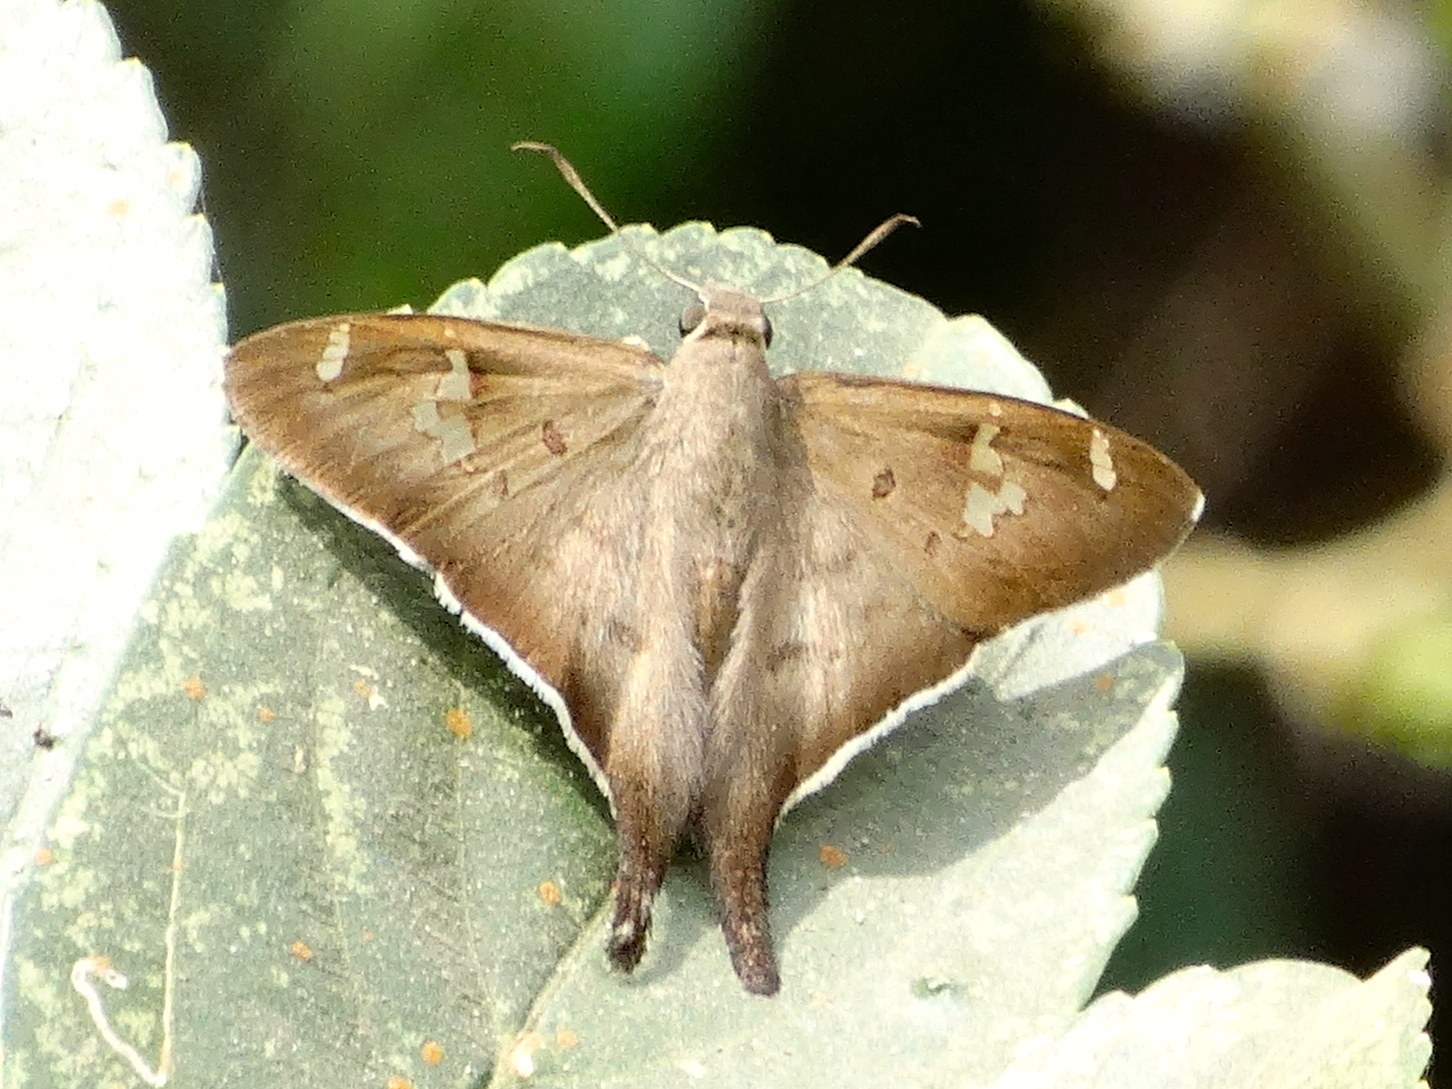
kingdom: Animalia
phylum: Arthropoda
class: Insecta
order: Lepidoptera
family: Hesperiidae
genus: Ectomis
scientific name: Ectomis
